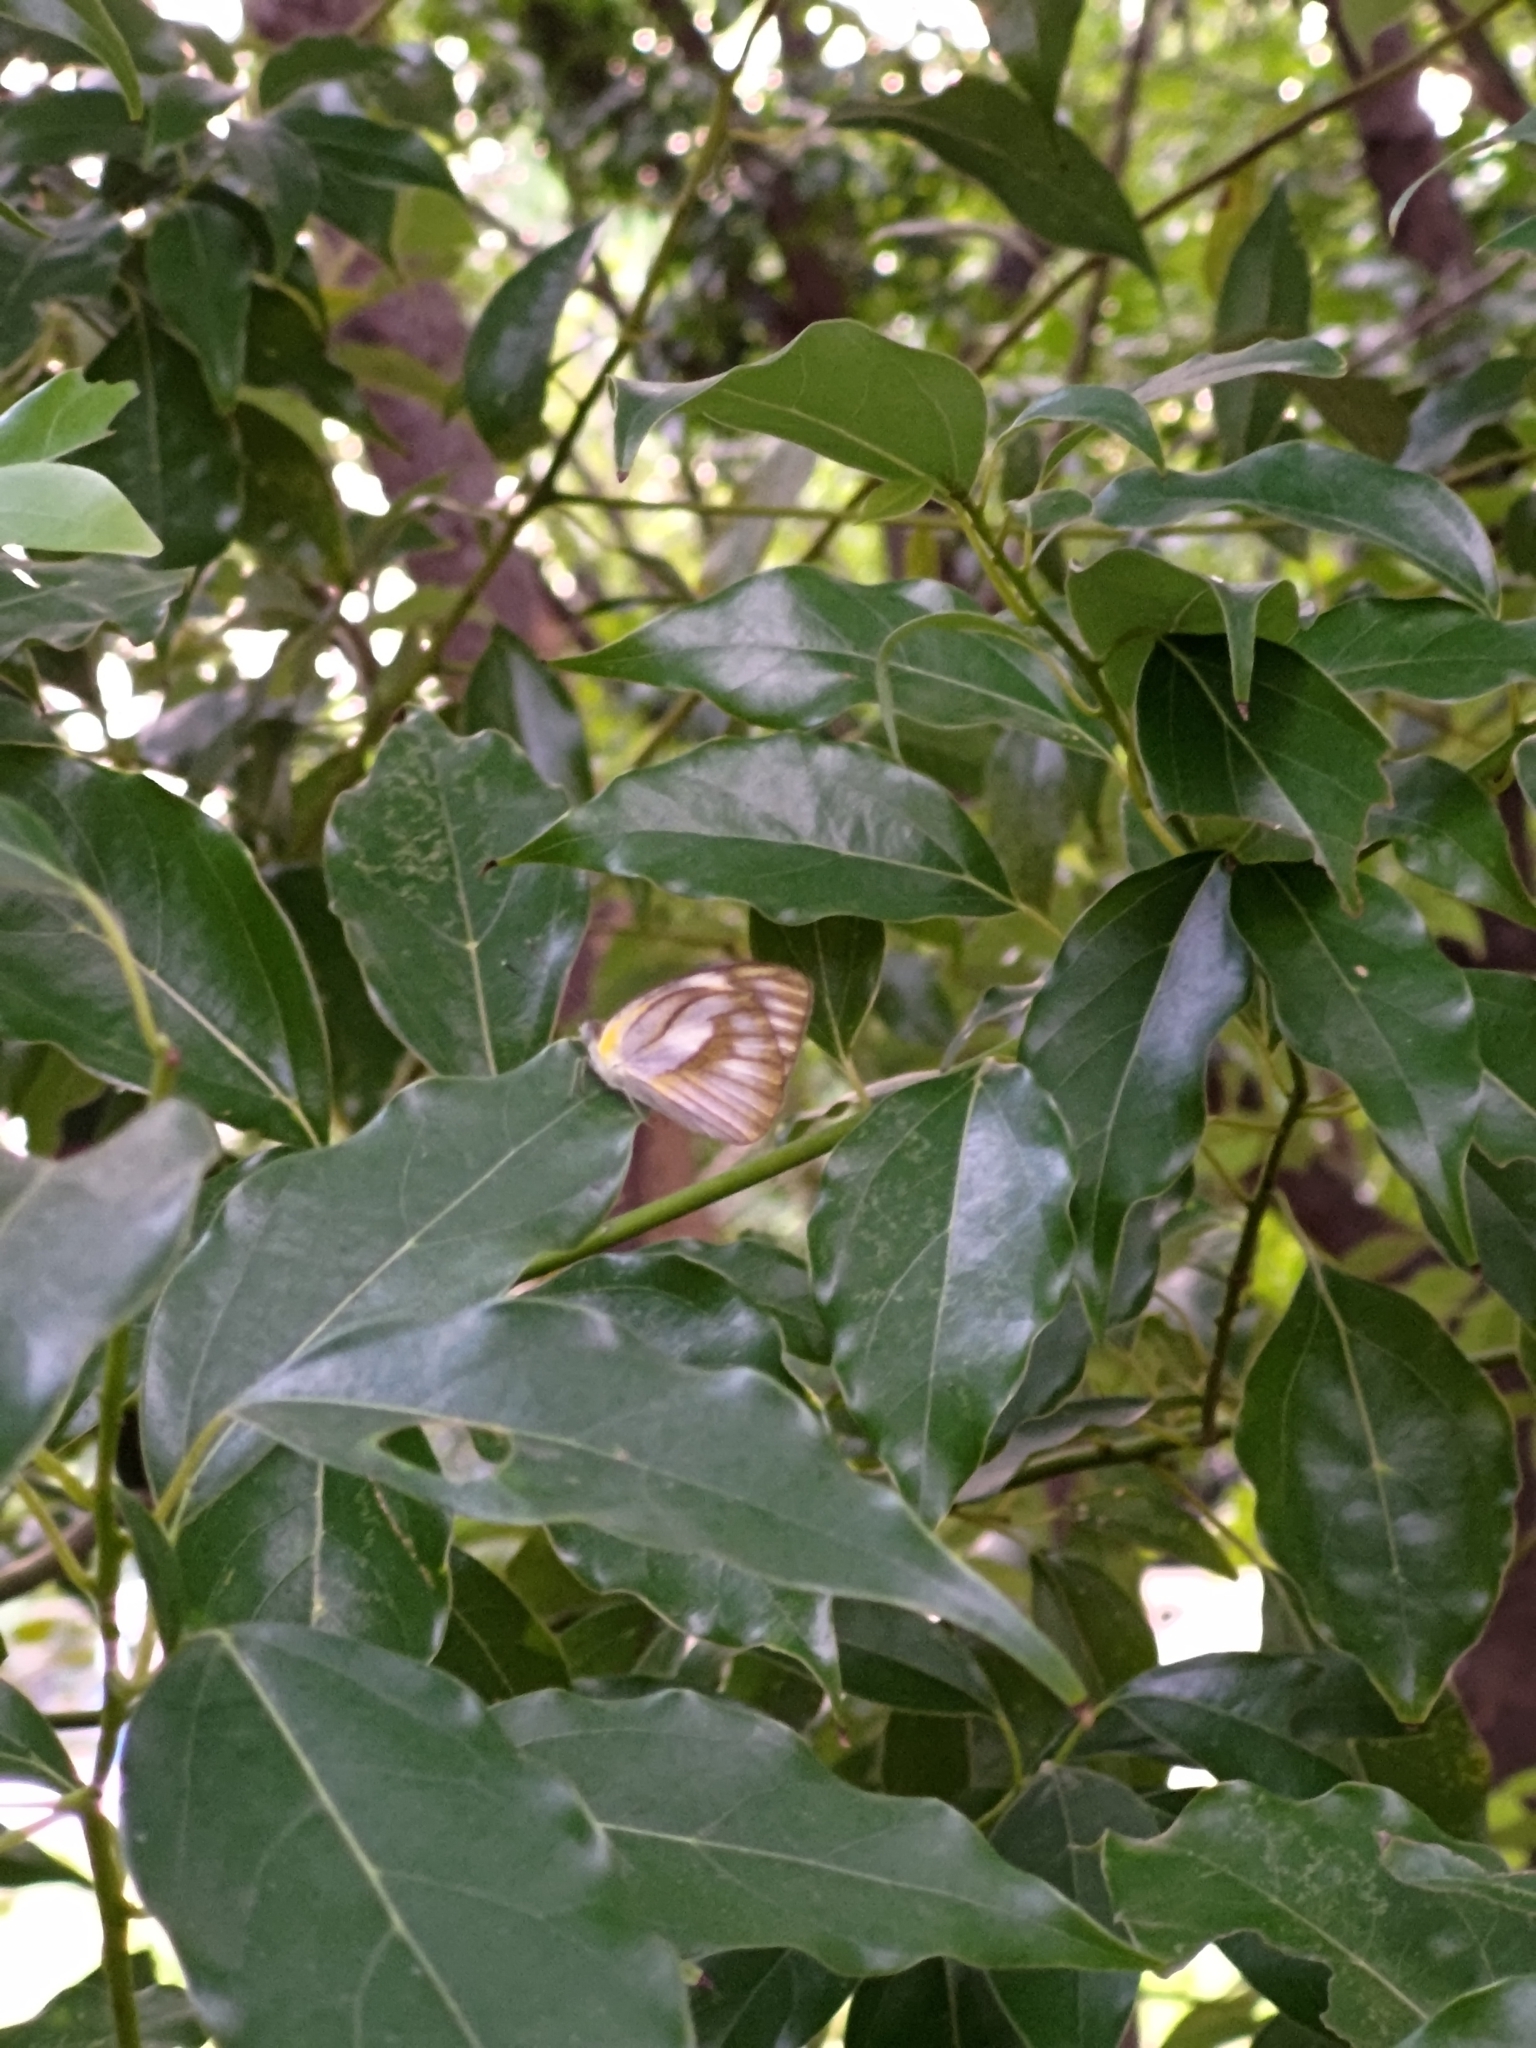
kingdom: Animalia
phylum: Arthropoda
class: Insecta
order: Lepidoptera
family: Pieridae
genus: Appias
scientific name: Appias libythea
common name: Striped albatross
